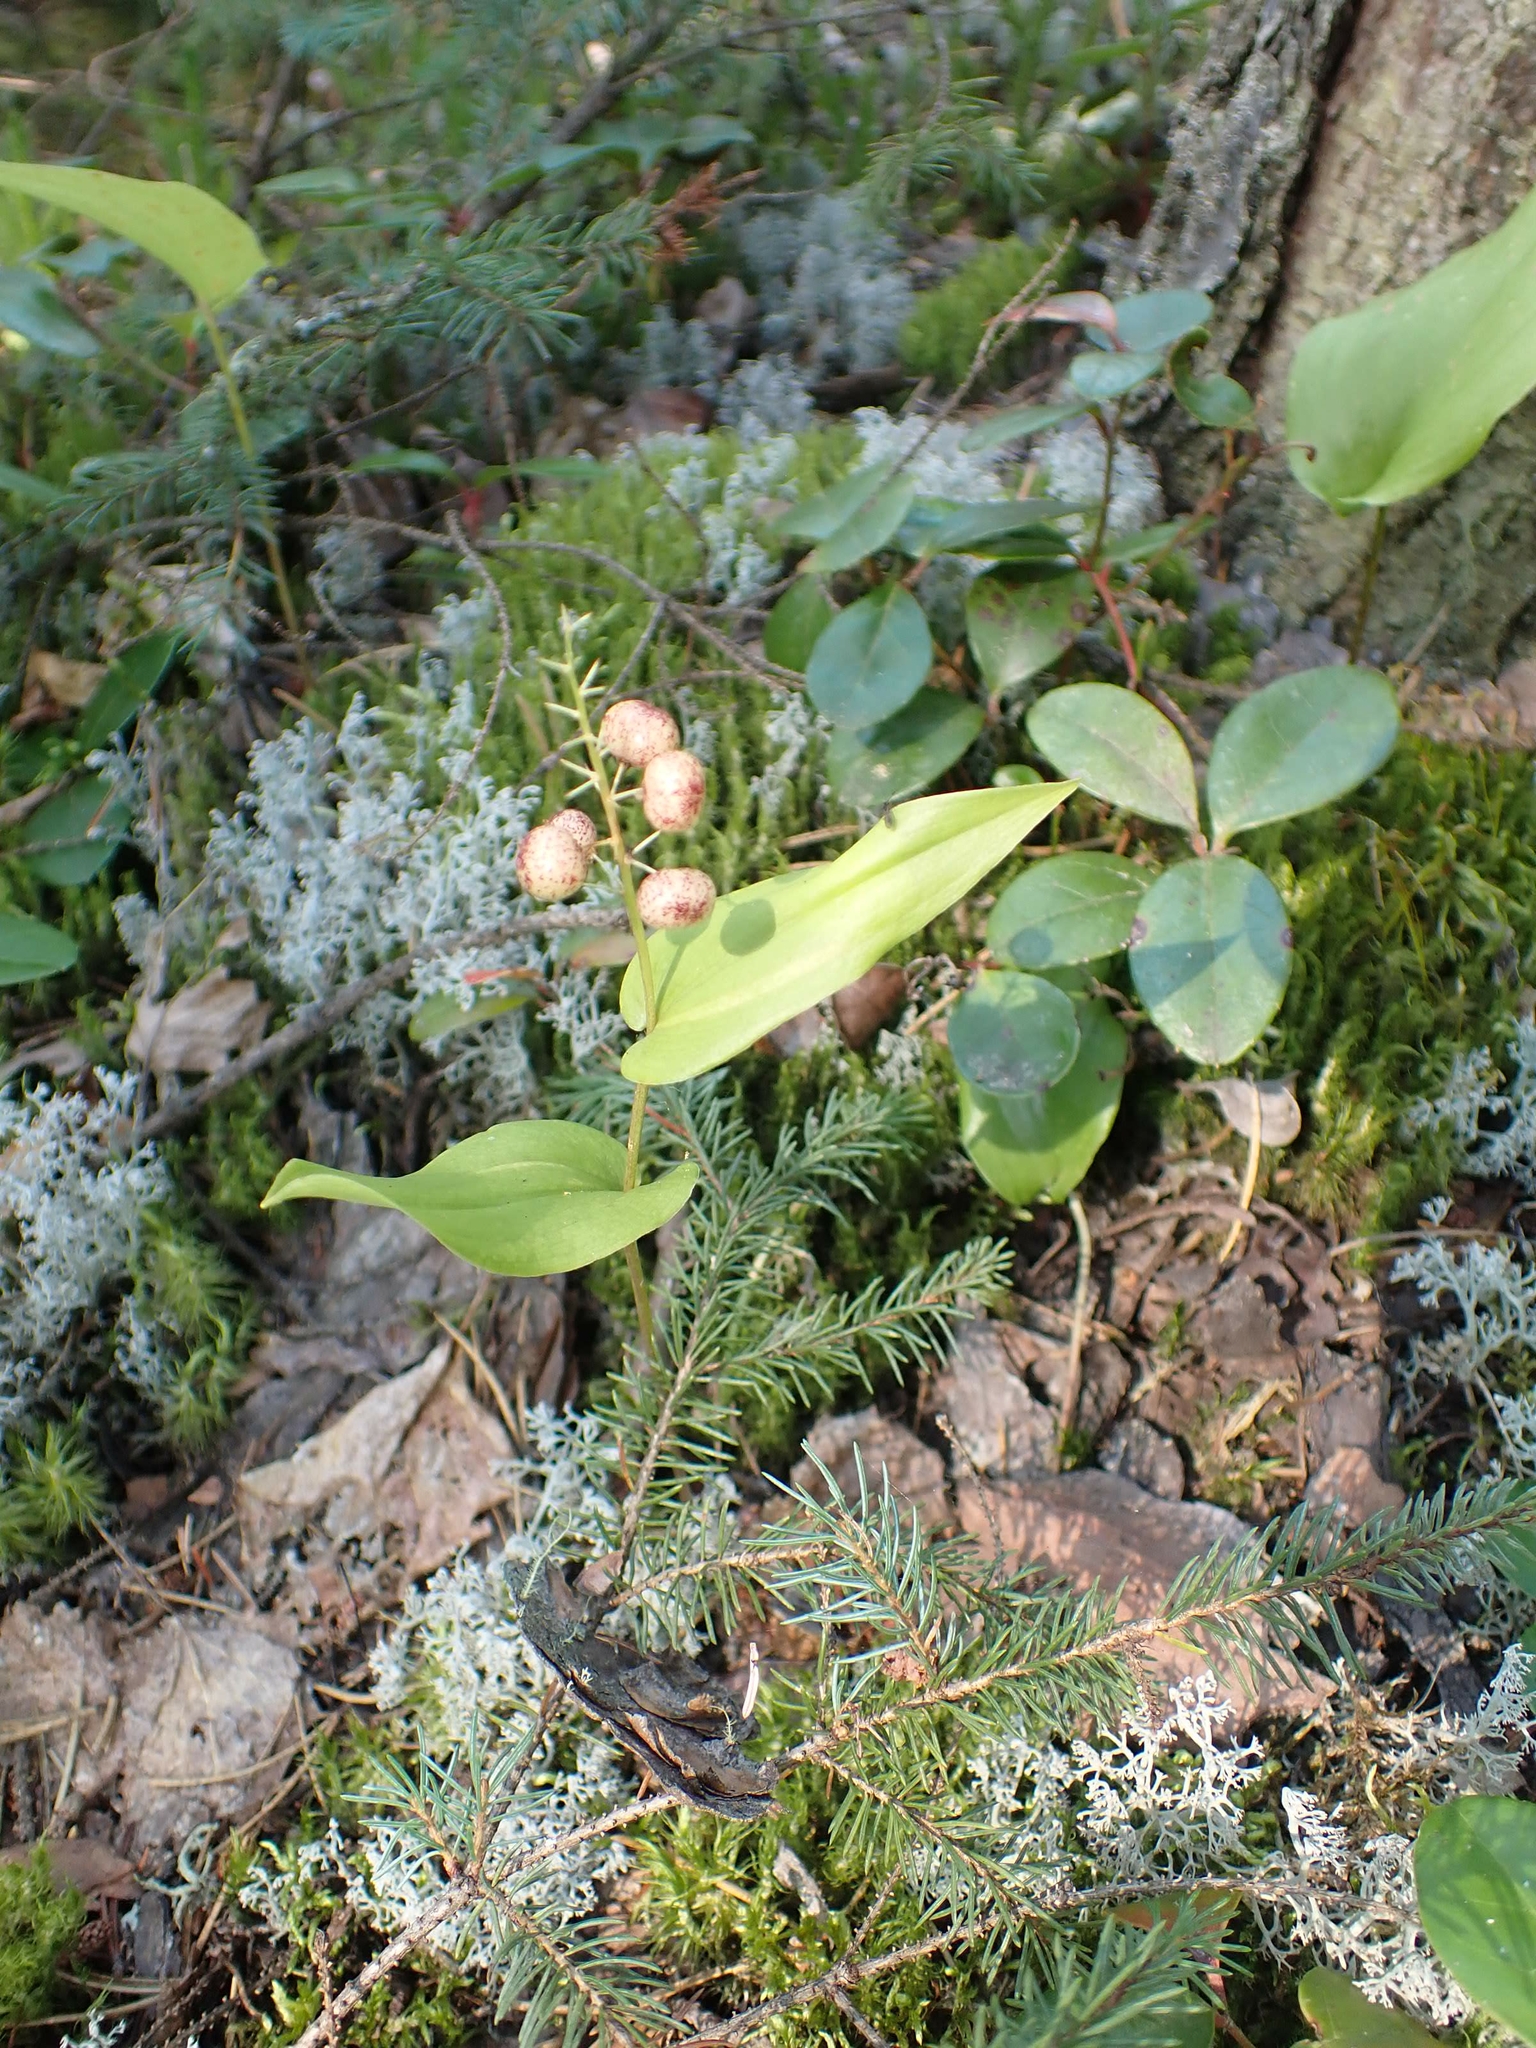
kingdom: Plantae
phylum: Tracheophyta
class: Liliopsida
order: Asparagales
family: Asparagaceae
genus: Maianthemum
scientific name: Maianthemum canadense
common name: False lily-of-the-valley
